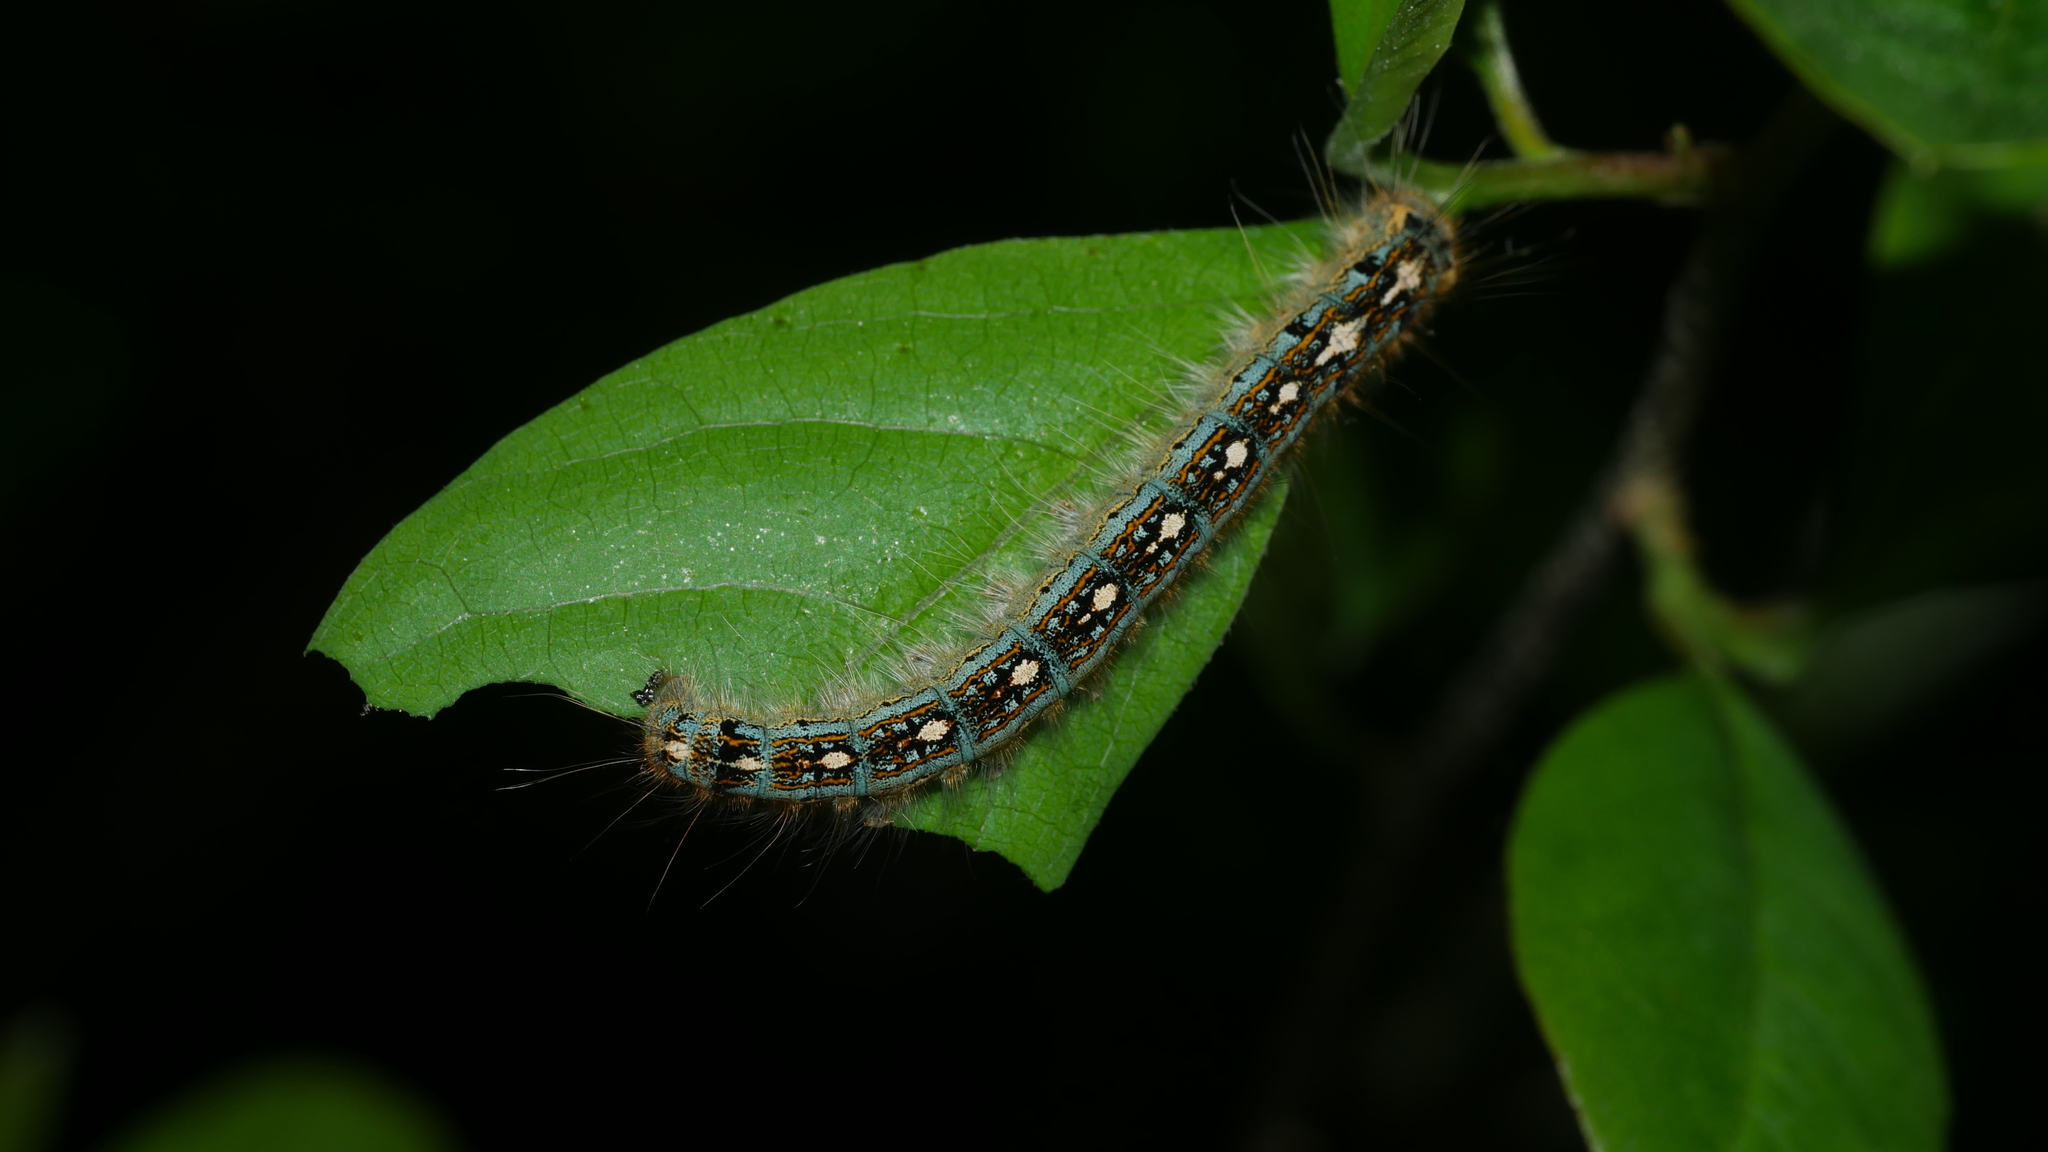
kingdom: Animalia
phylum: Arthropoda
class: Insecta
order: Lepidoptera
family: Lasiocampidae
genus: Malacosoma
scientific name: Malacosoma disstria
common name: Forest tent caterpillar
